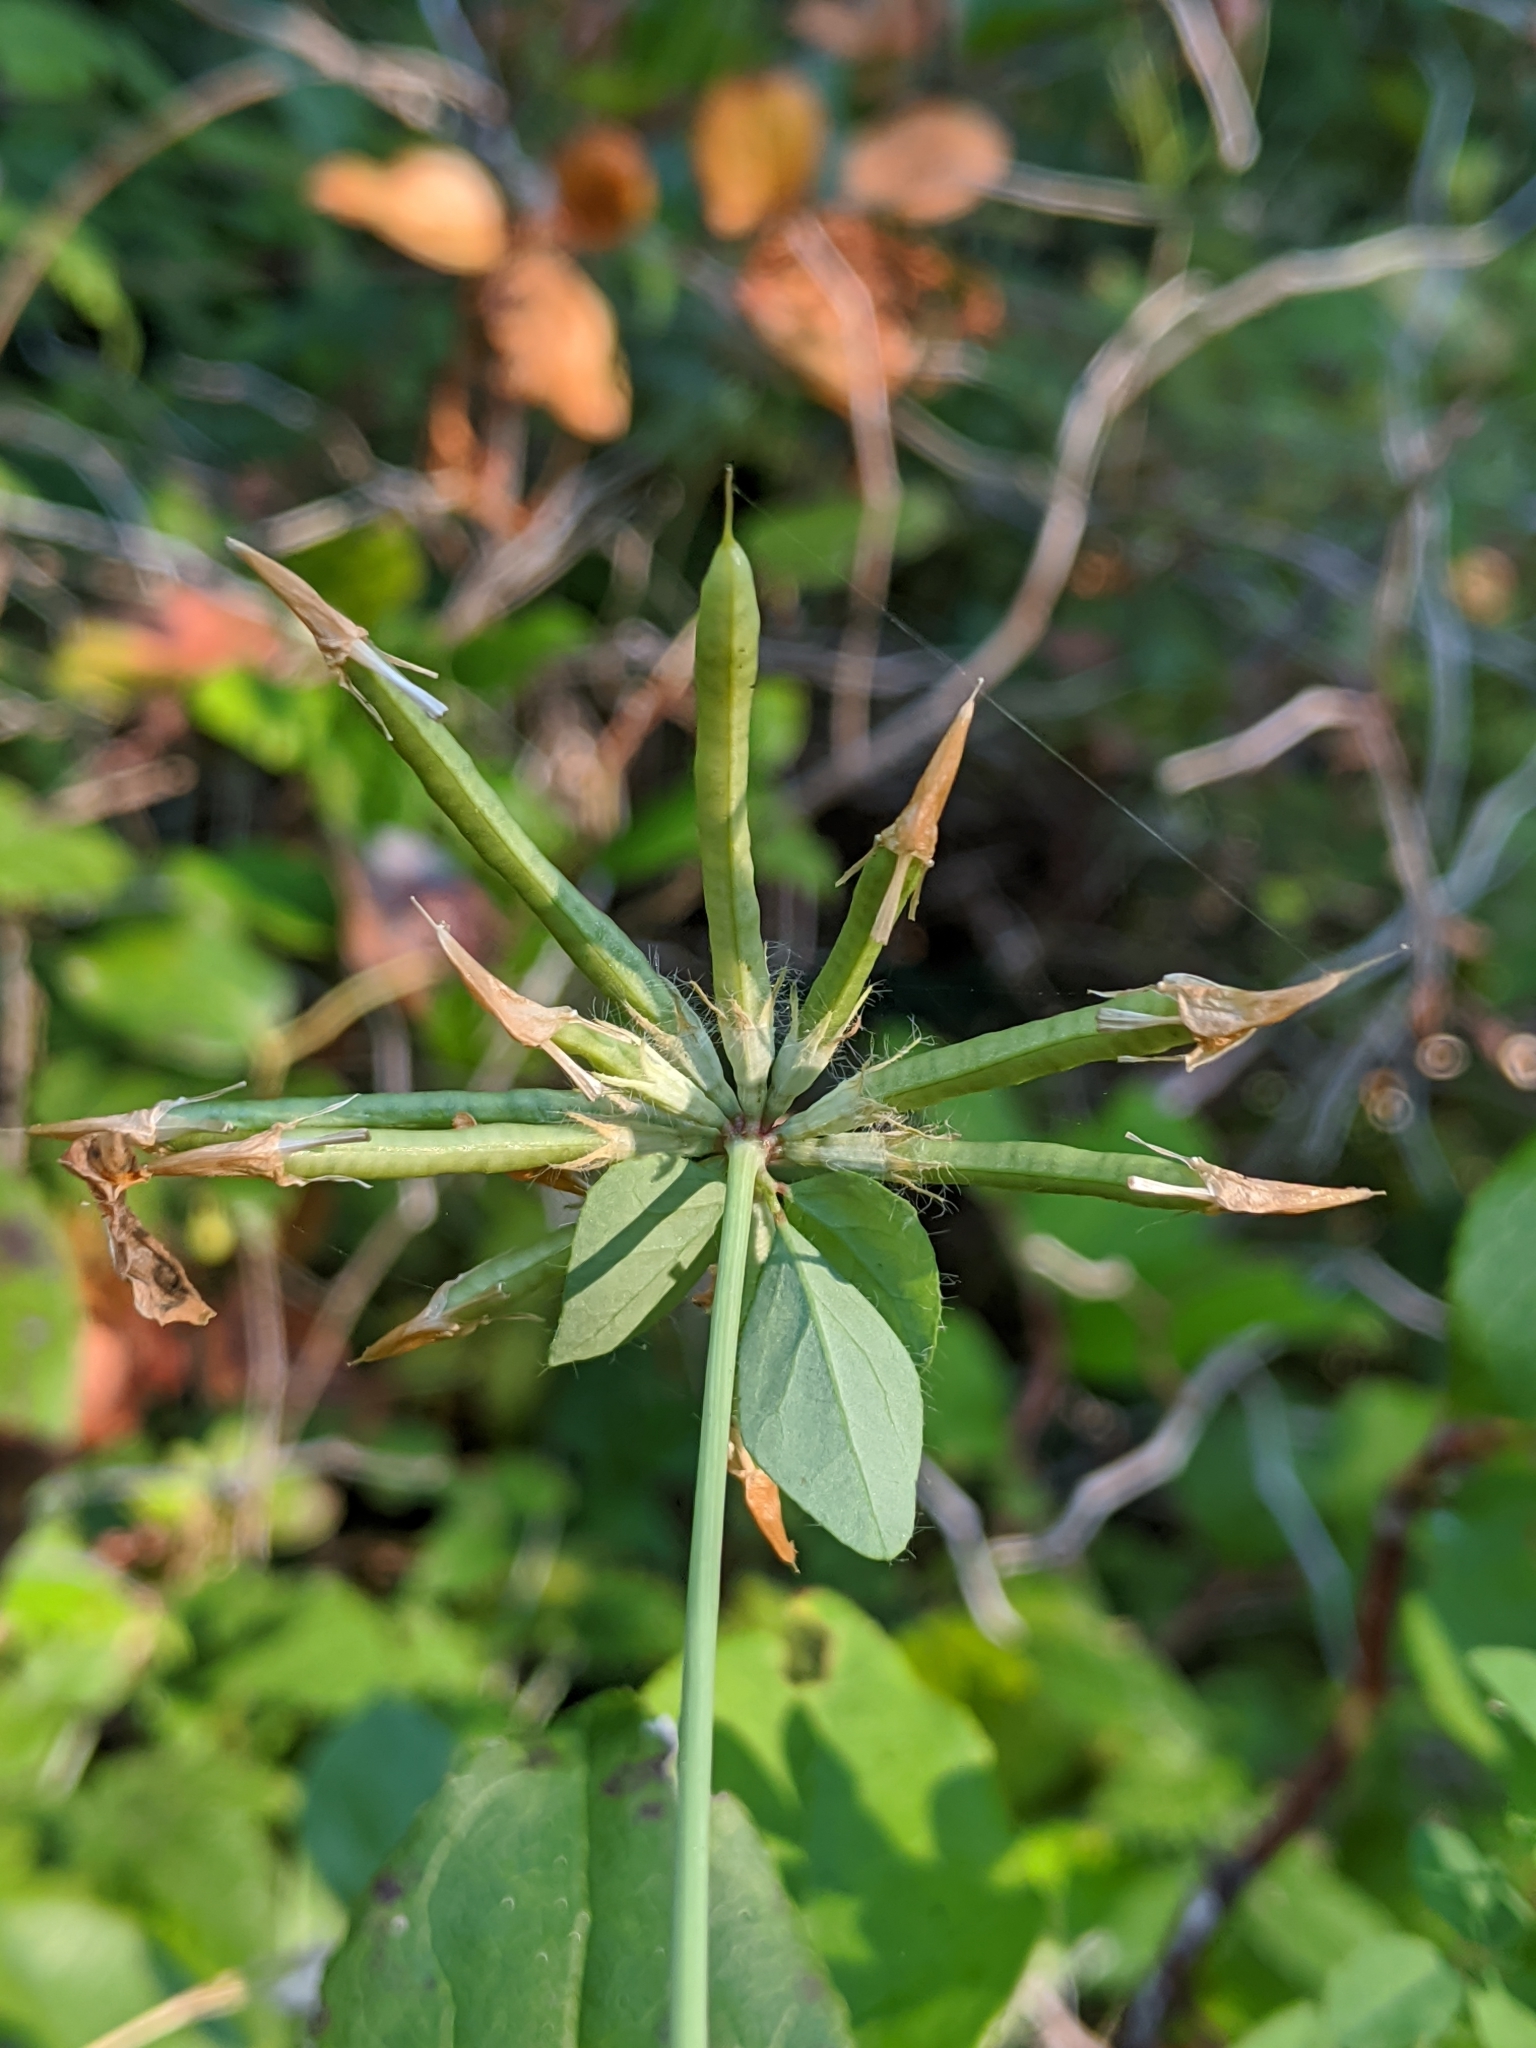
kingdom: Plantae
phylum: Tracheophyta
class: Magnoliopsida
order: Fabales
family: Fabaceae
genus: Lotus
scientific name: Lotus
